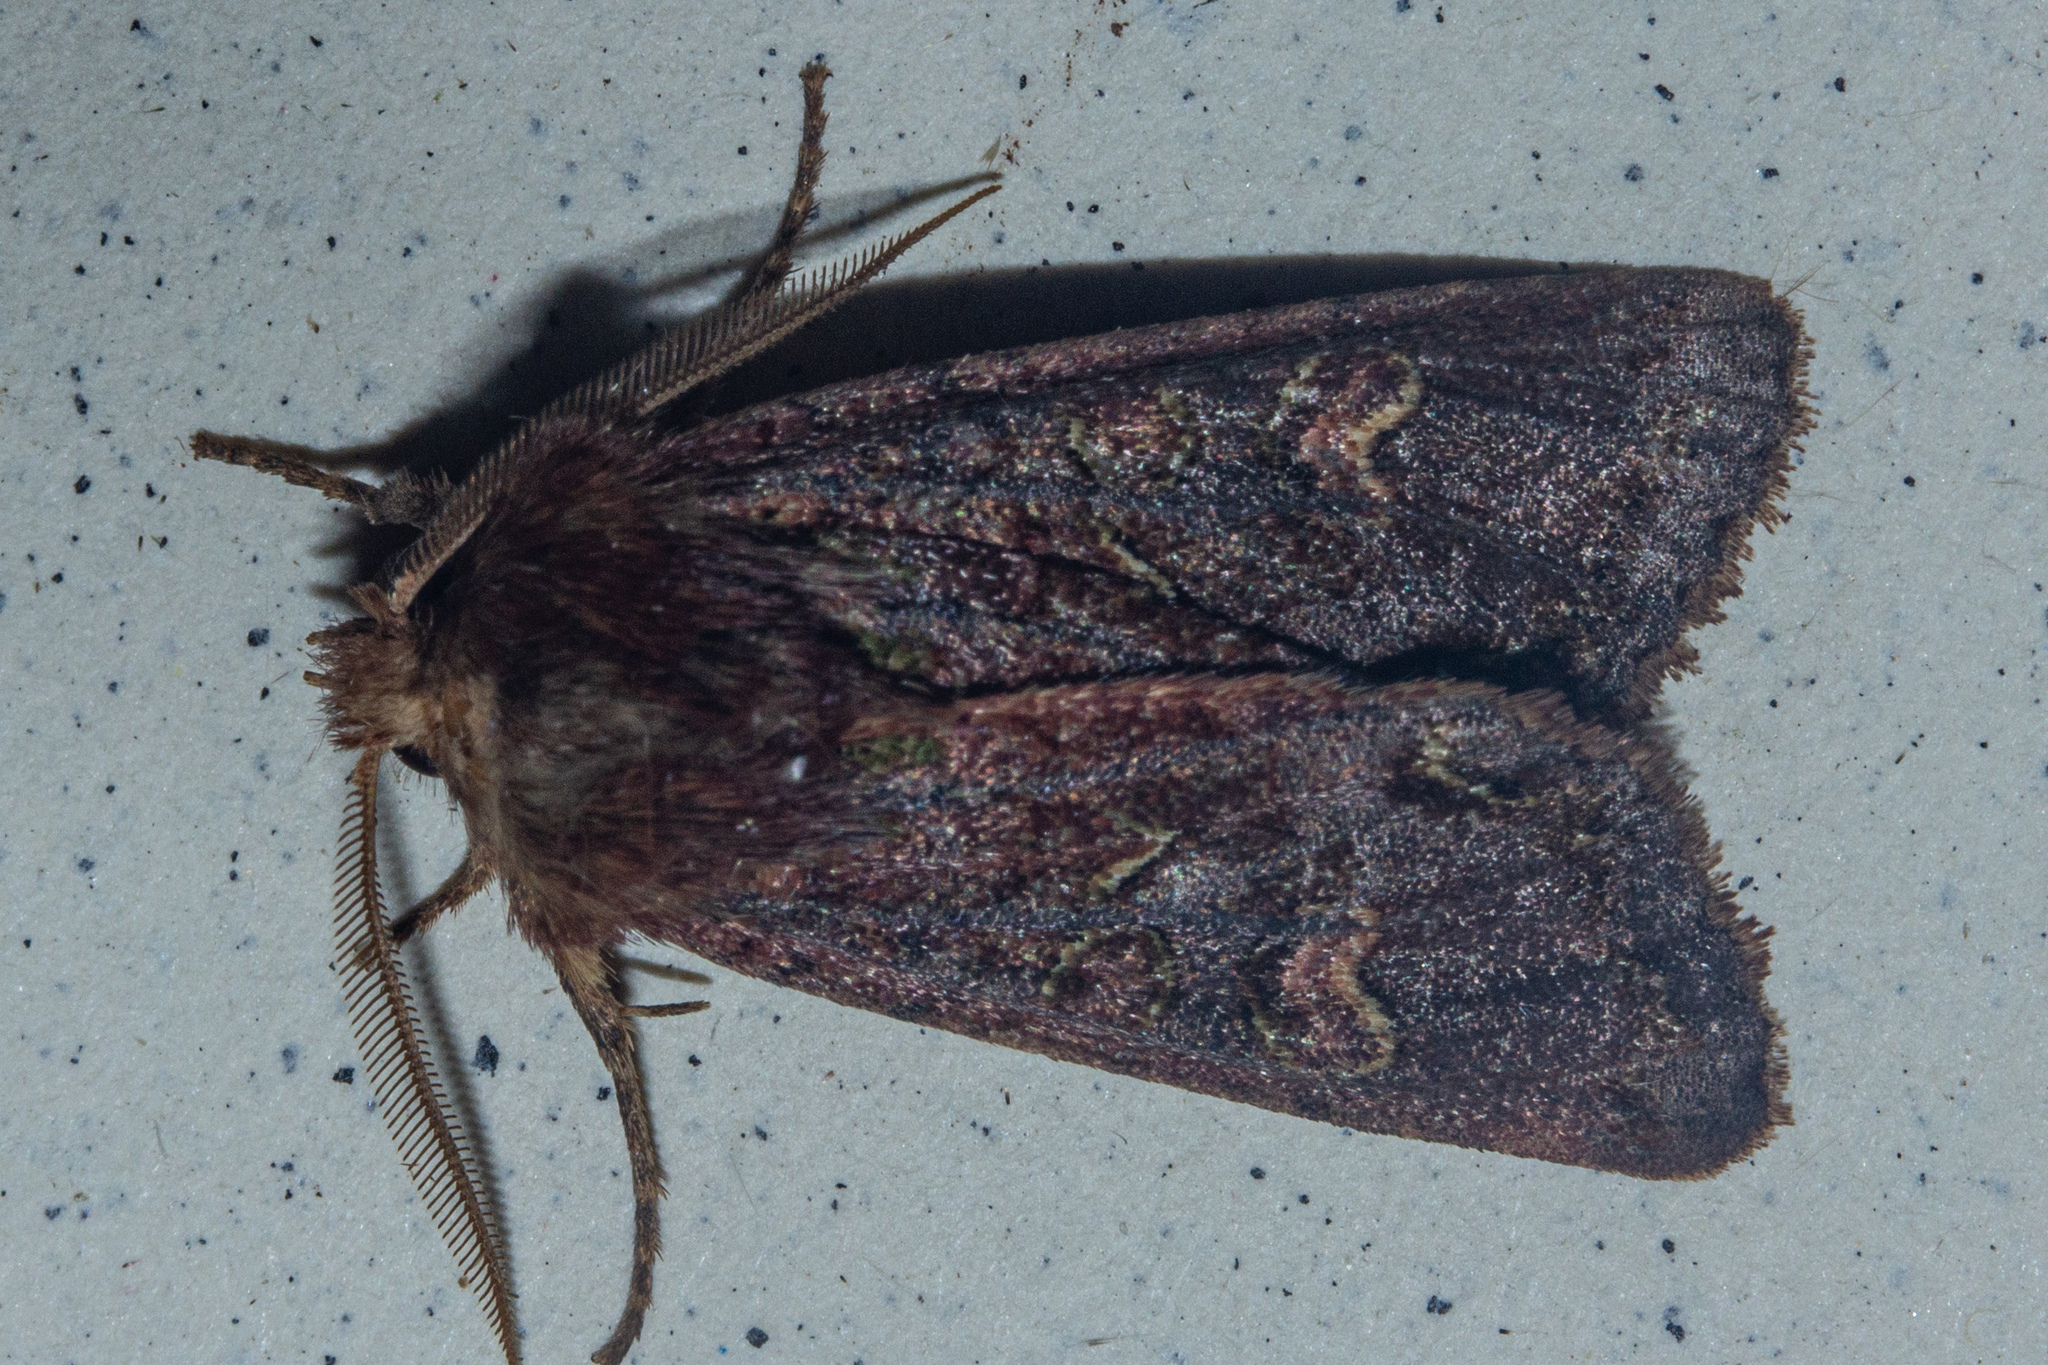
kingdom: Animalia
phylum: Arthropoda
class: Insecta
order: Lepidoptera
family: Noctuidae
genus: Ichneutica
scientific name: Ichneutica
